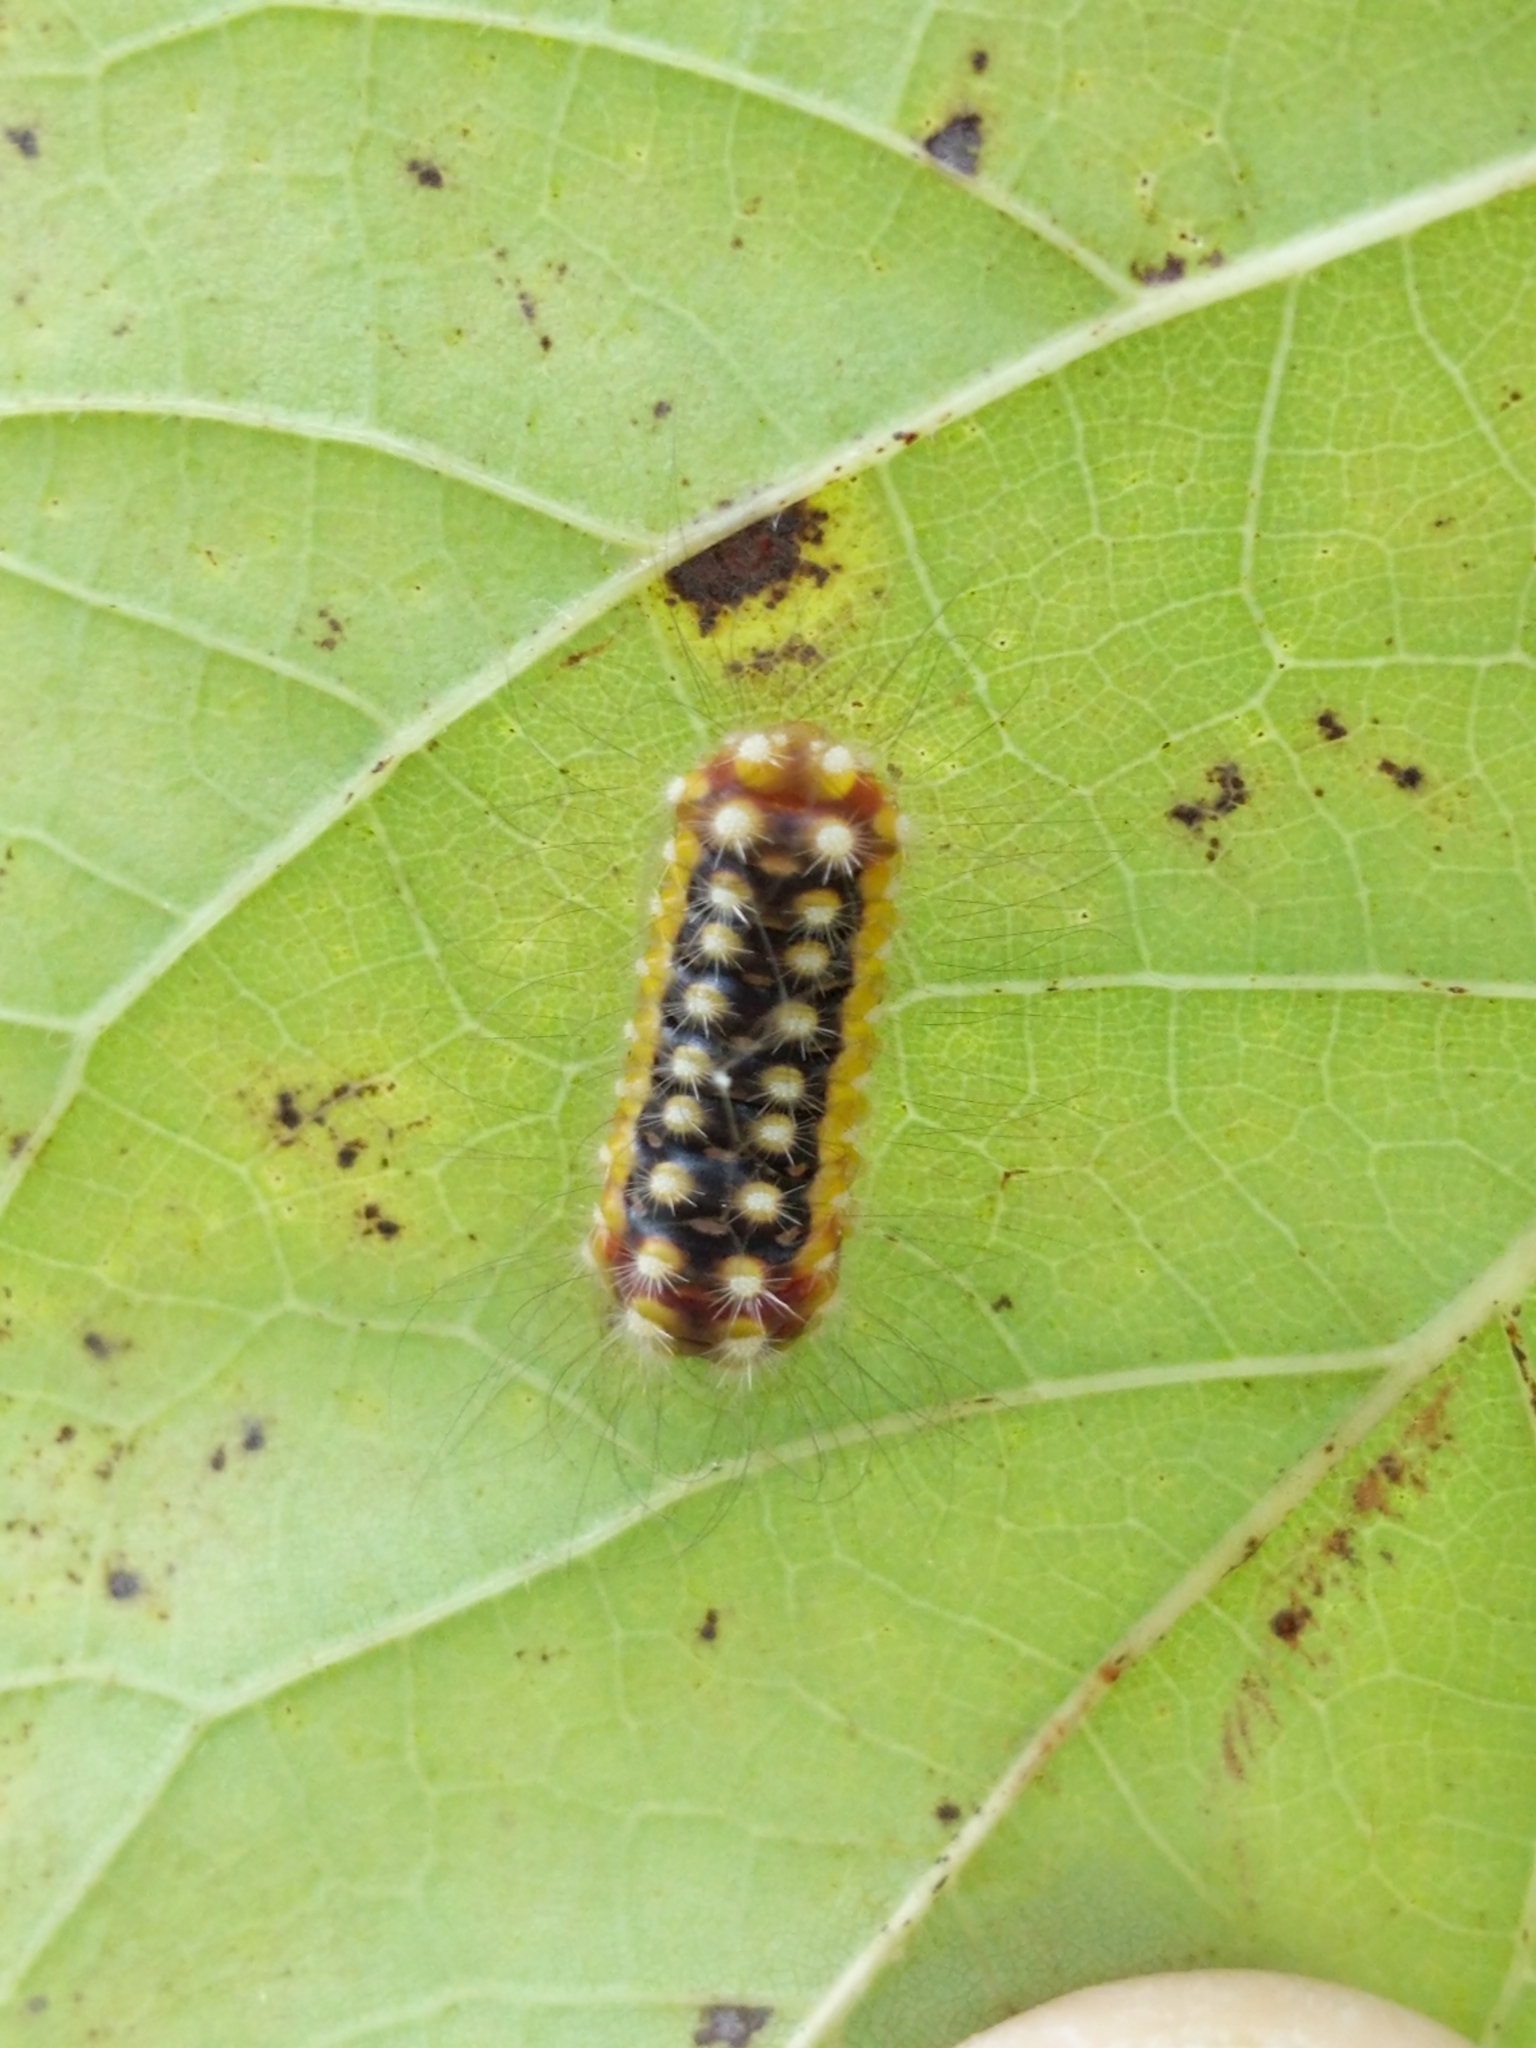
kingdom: Animalia
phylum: Arthropoda
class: Insecta
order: Lepidoptera
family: Megalopygidae
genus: Norape
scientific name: Norape cretata
